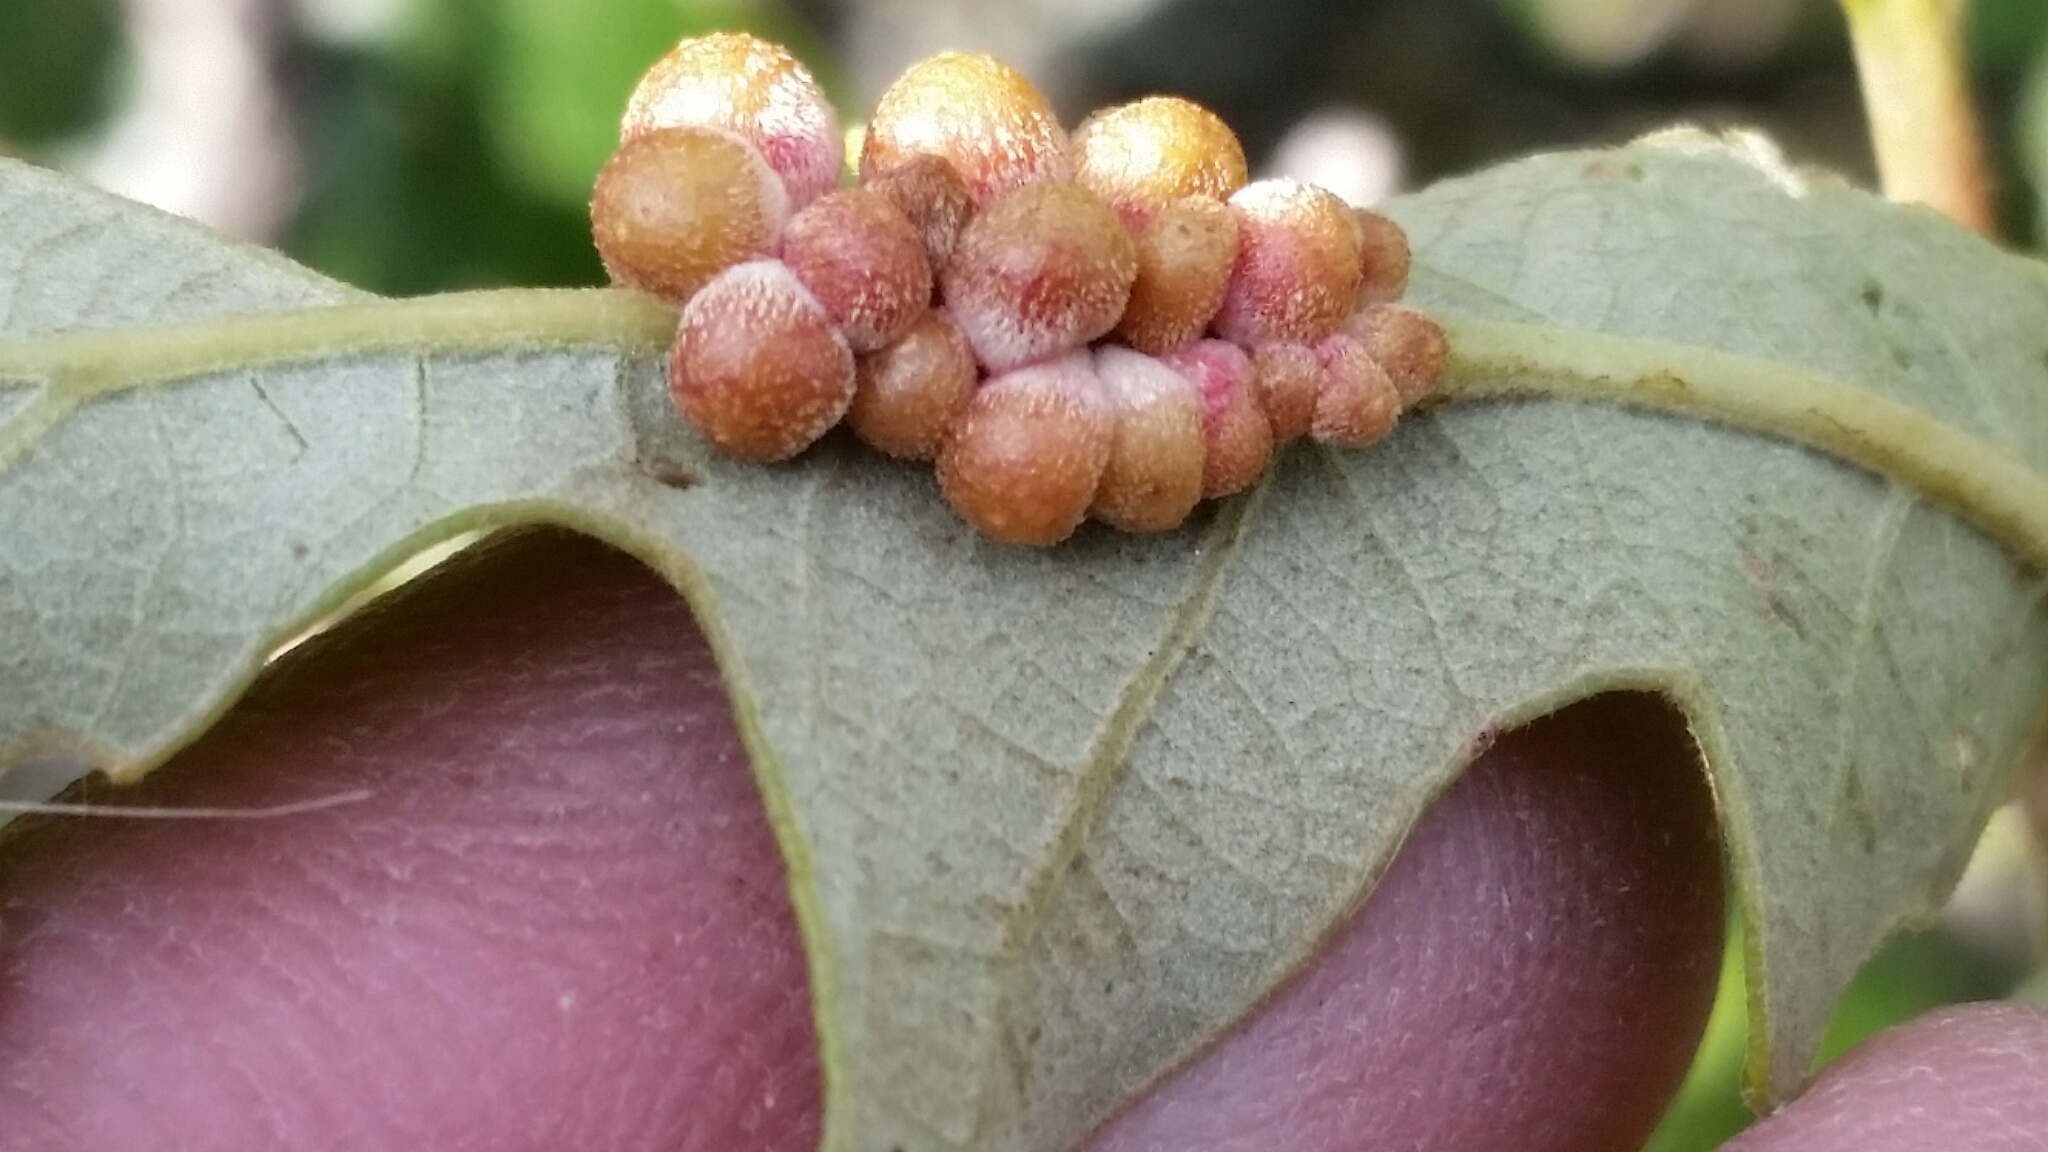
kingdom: Animalia
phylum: Arthropoda
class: Insecta
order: Hymenoptera
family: Cynipidae
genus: Andricus
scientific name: Andricus
